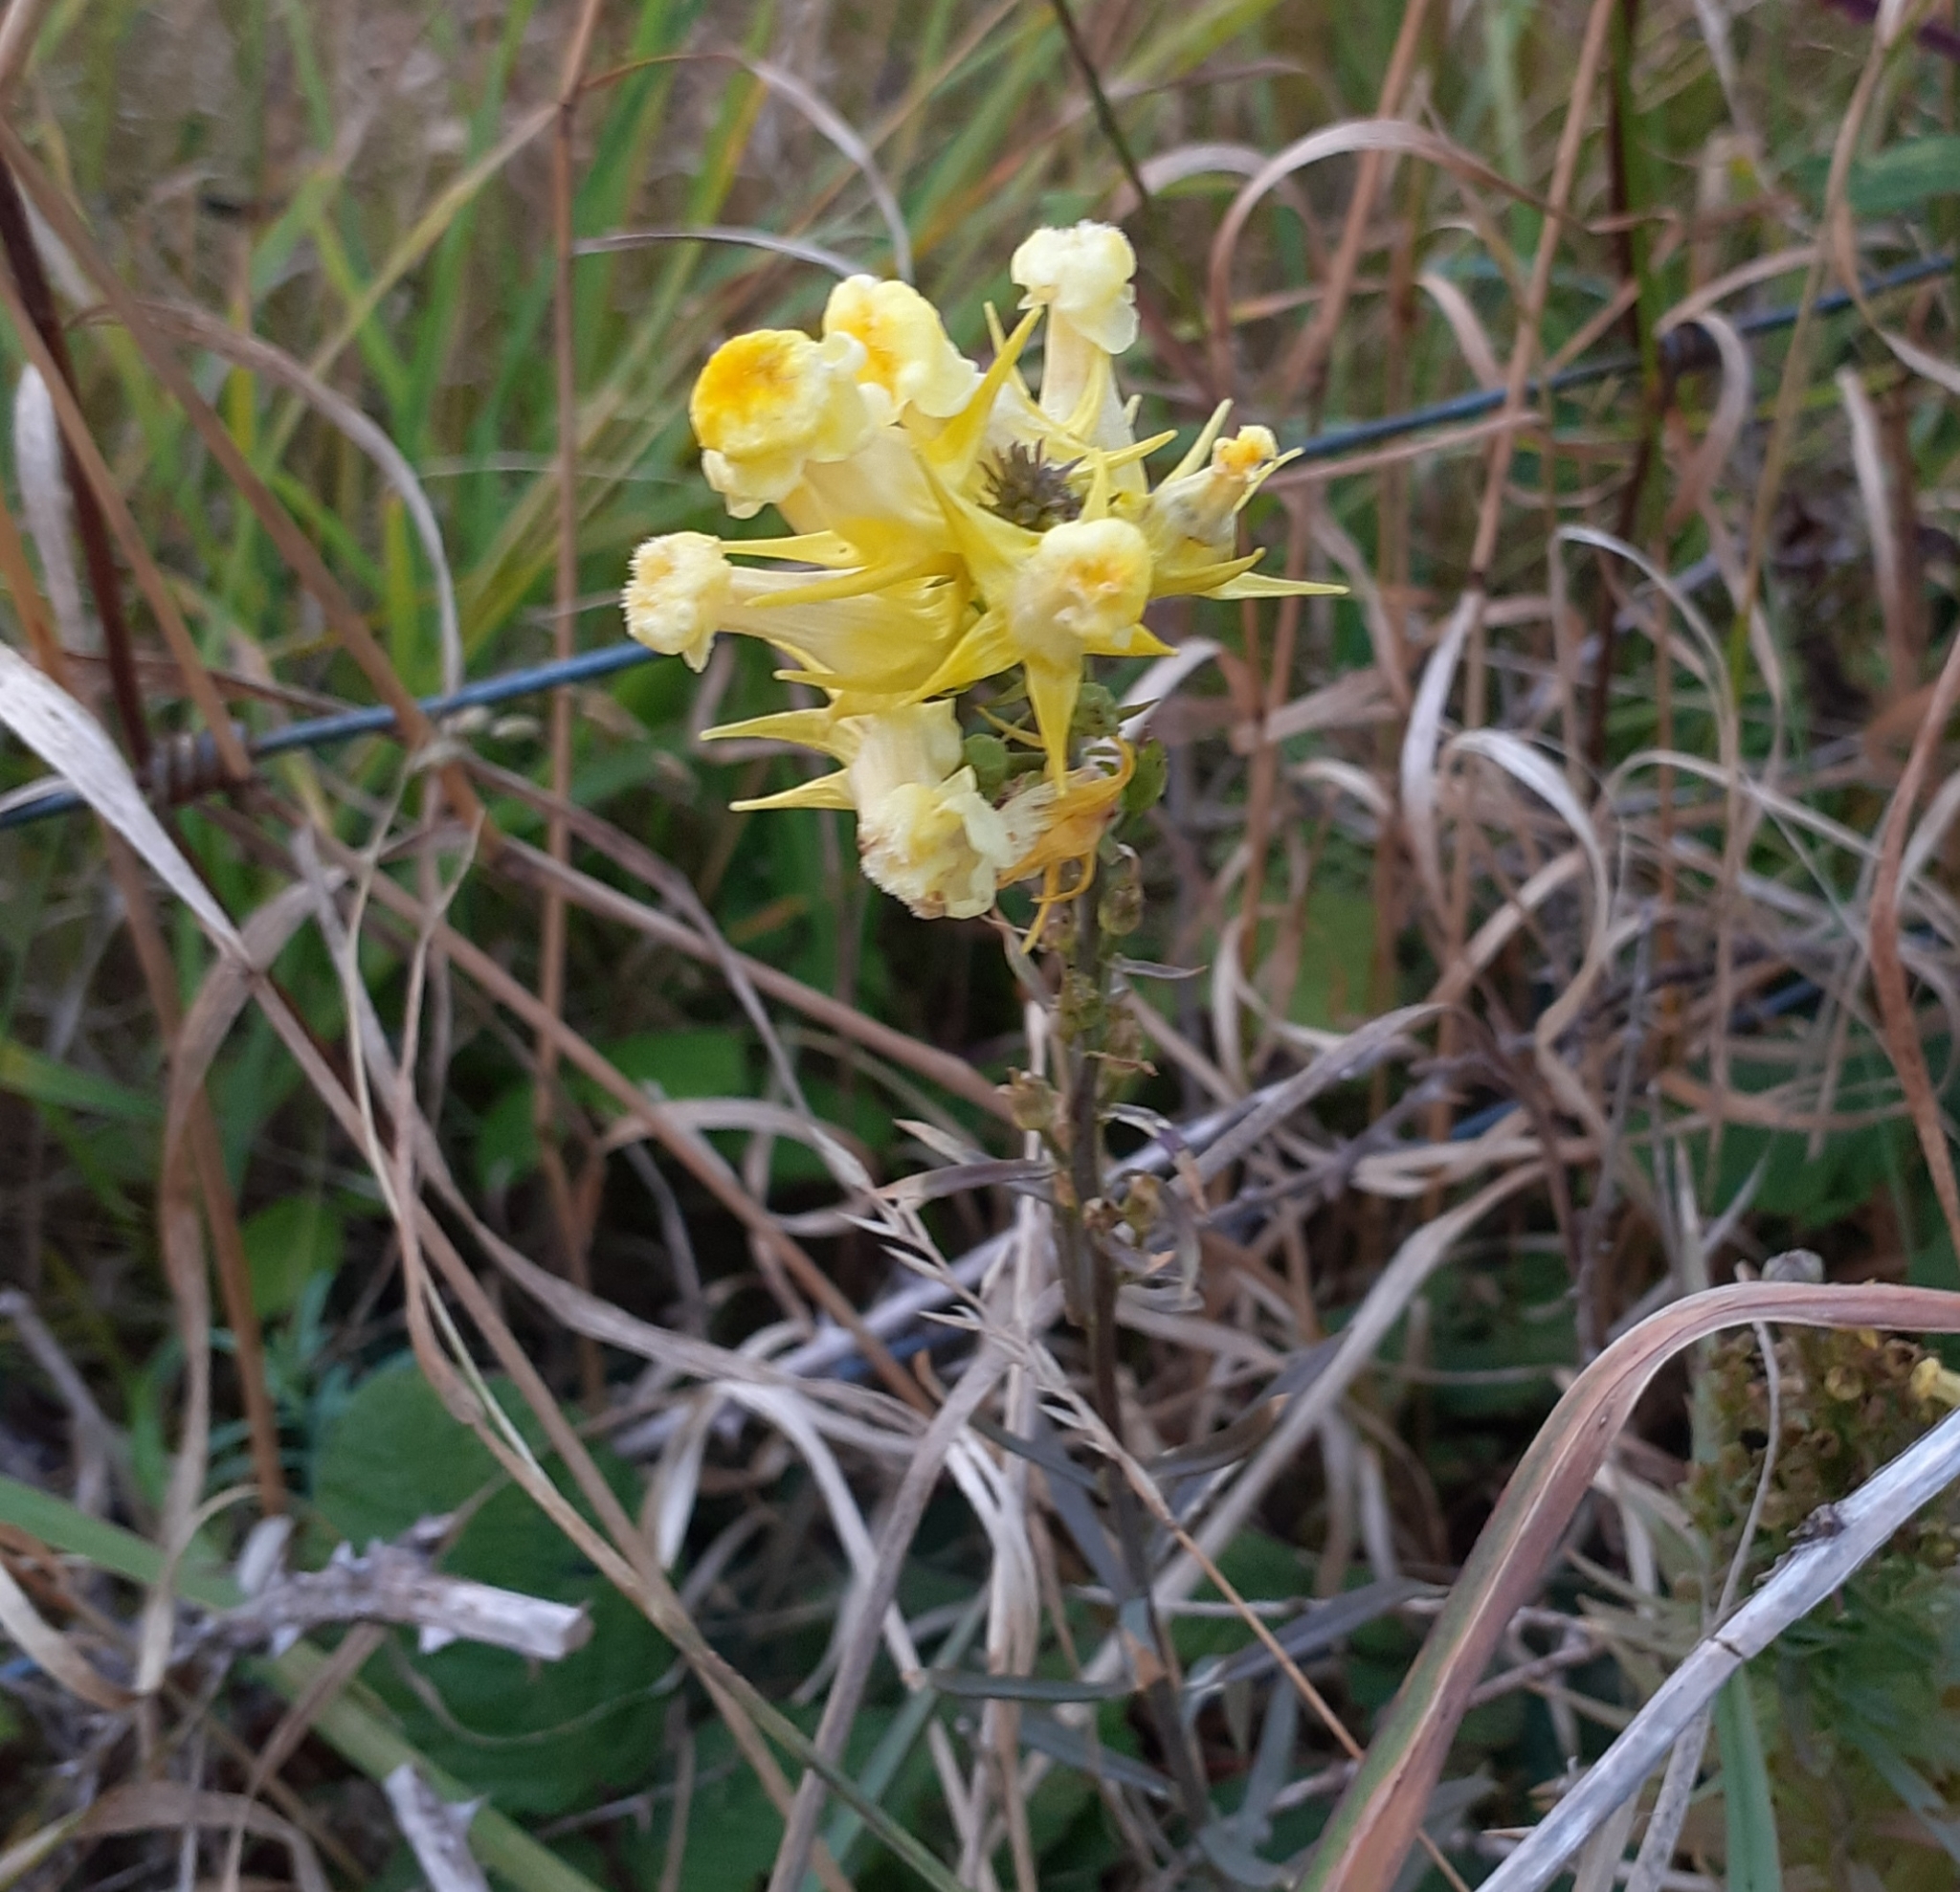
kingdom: Plantae
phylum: Tracheophyta
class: Magnoliopsida
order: Lamiales
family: Plantaginaceae
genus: Linaria
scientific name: Linaria vulgaris
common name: Butter and eggs
